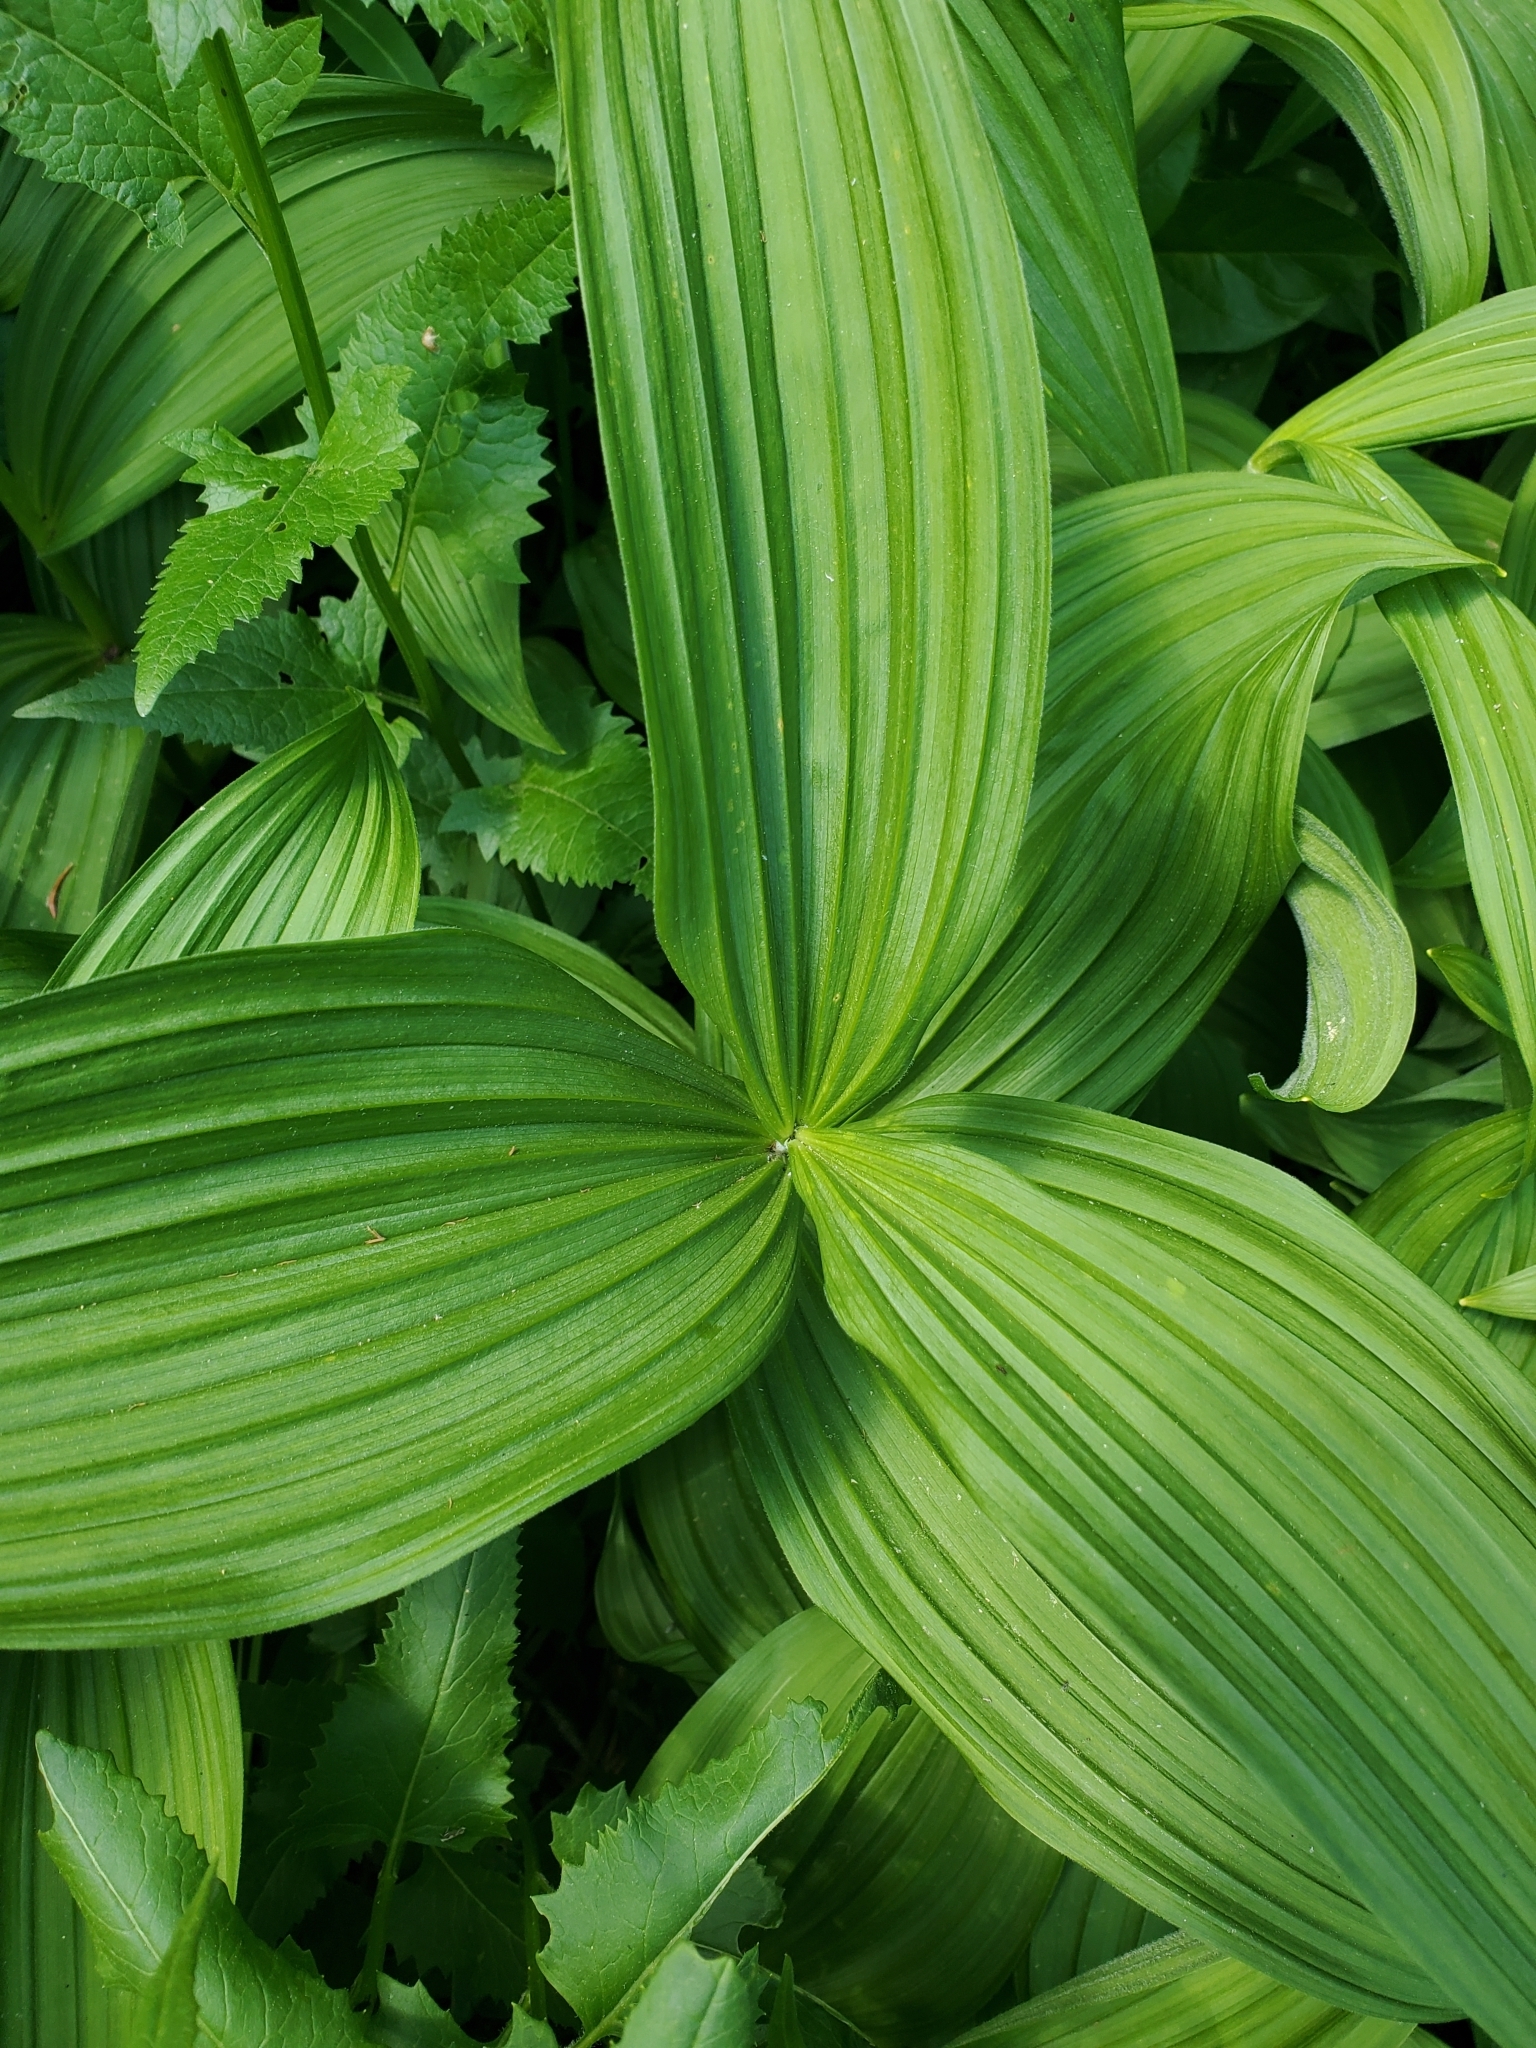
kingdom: Plantae
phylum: Tracheophyta
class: Liliopsida
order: Liliales
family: Melanthiaceae
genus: Veratrum
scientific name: Veratrum viride
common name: American false hellebore
